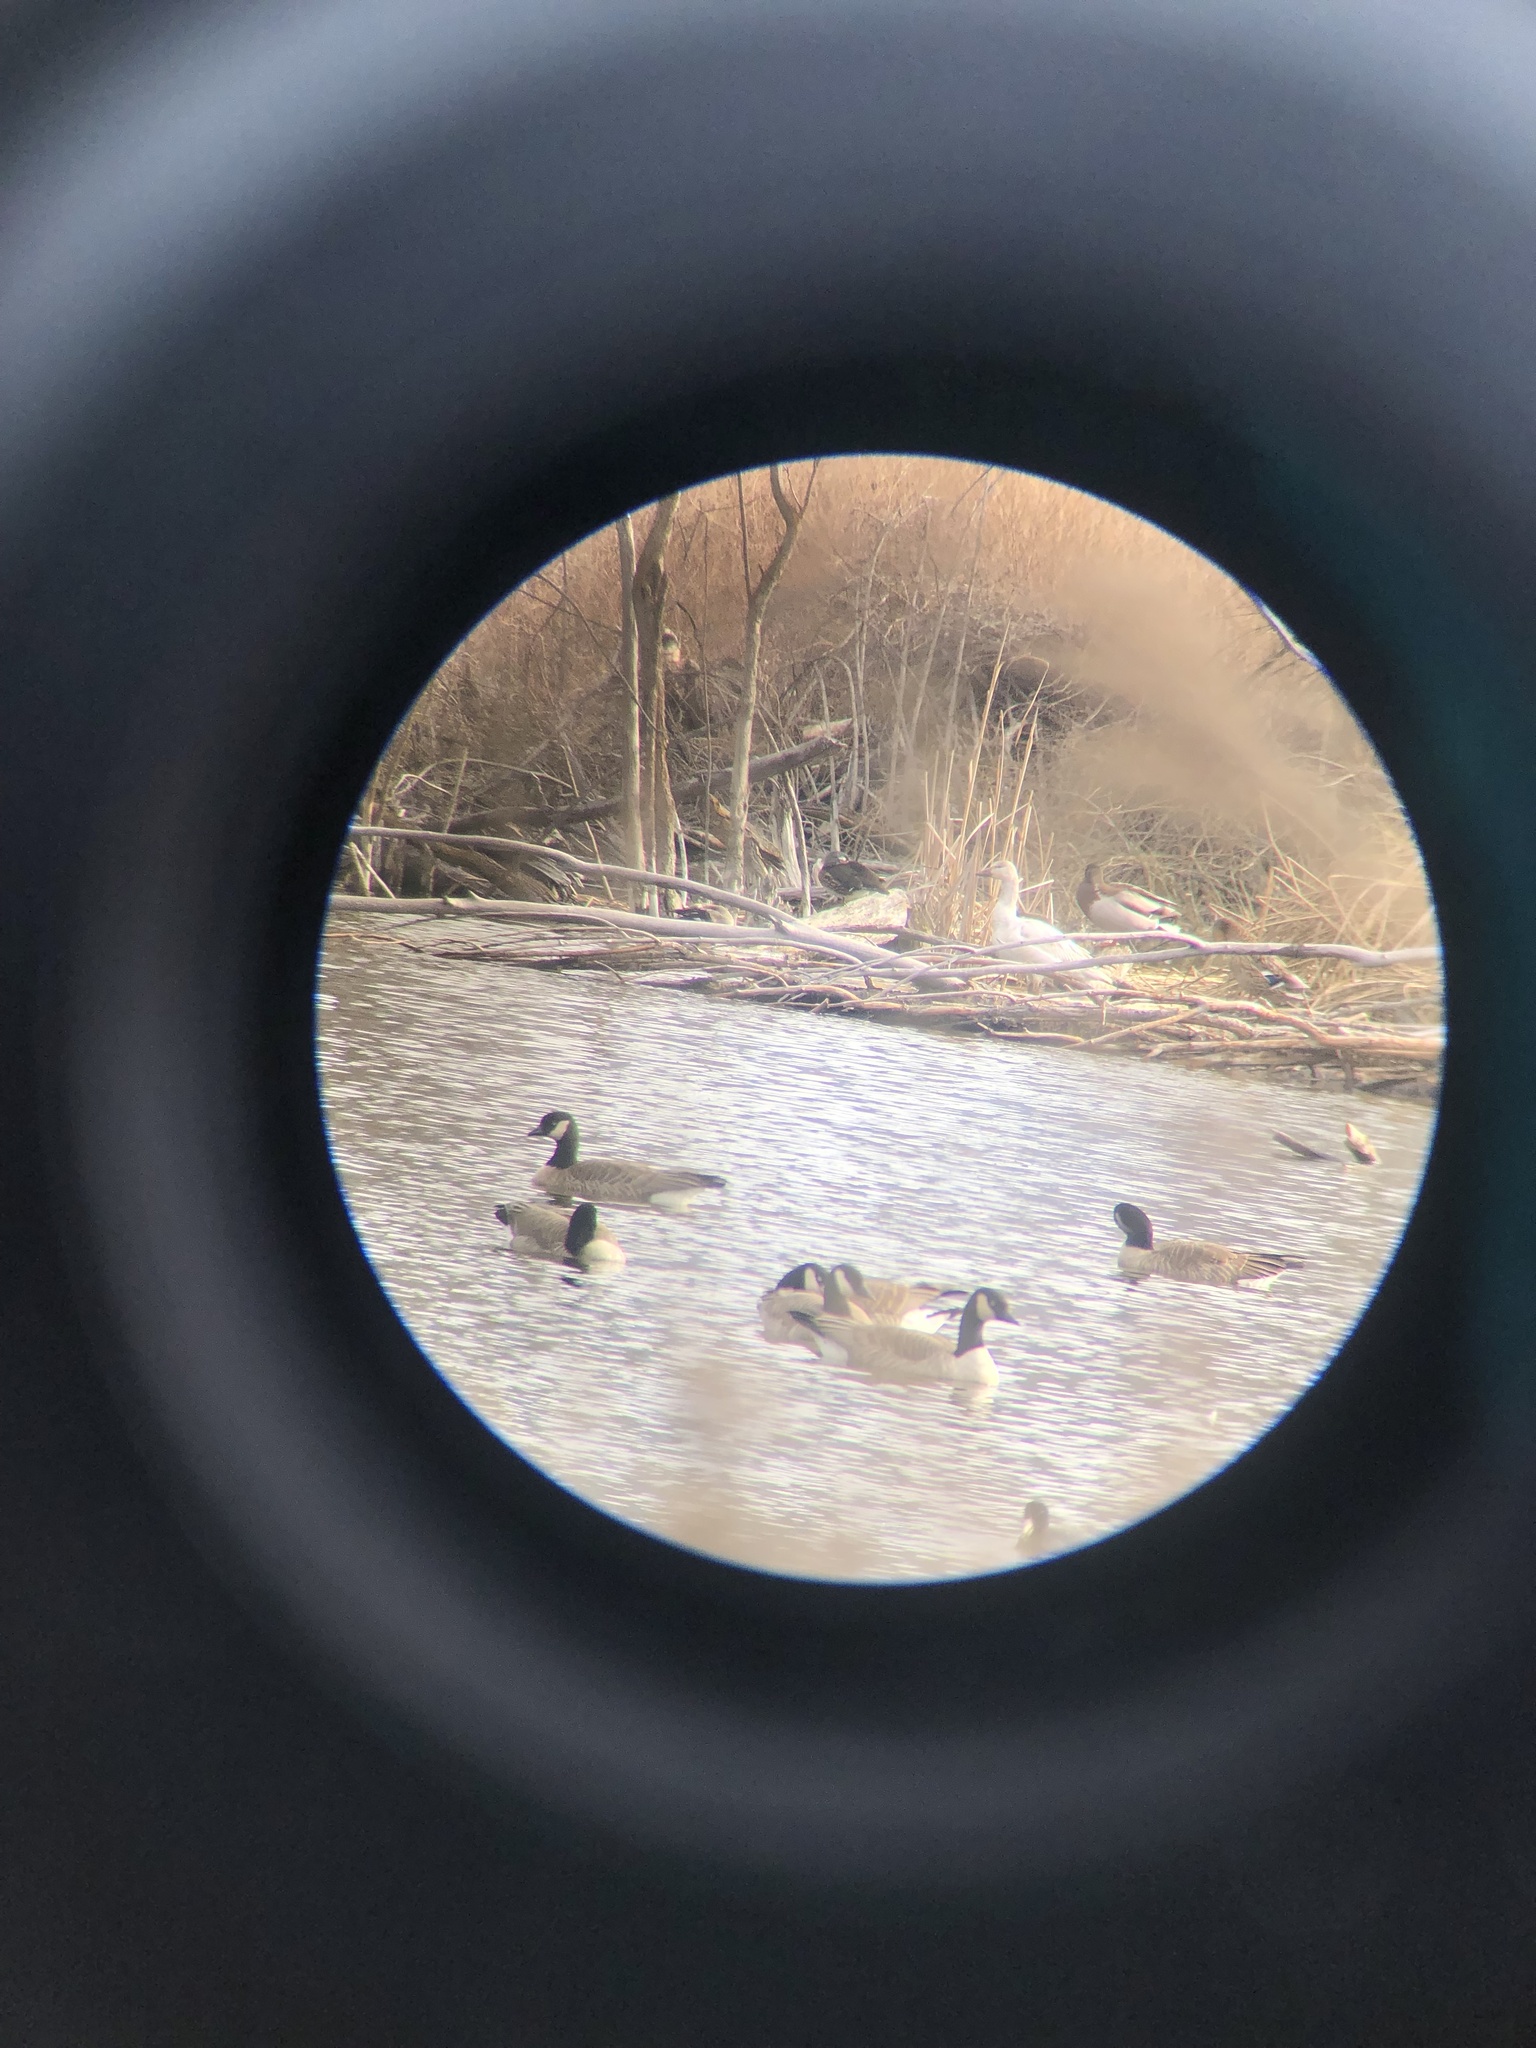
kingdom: Animalia
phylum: Chordata
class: Aves
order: Anseriformes
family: Anatidae
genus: Anser
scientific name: Anser caerulescens
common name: Snow goose
